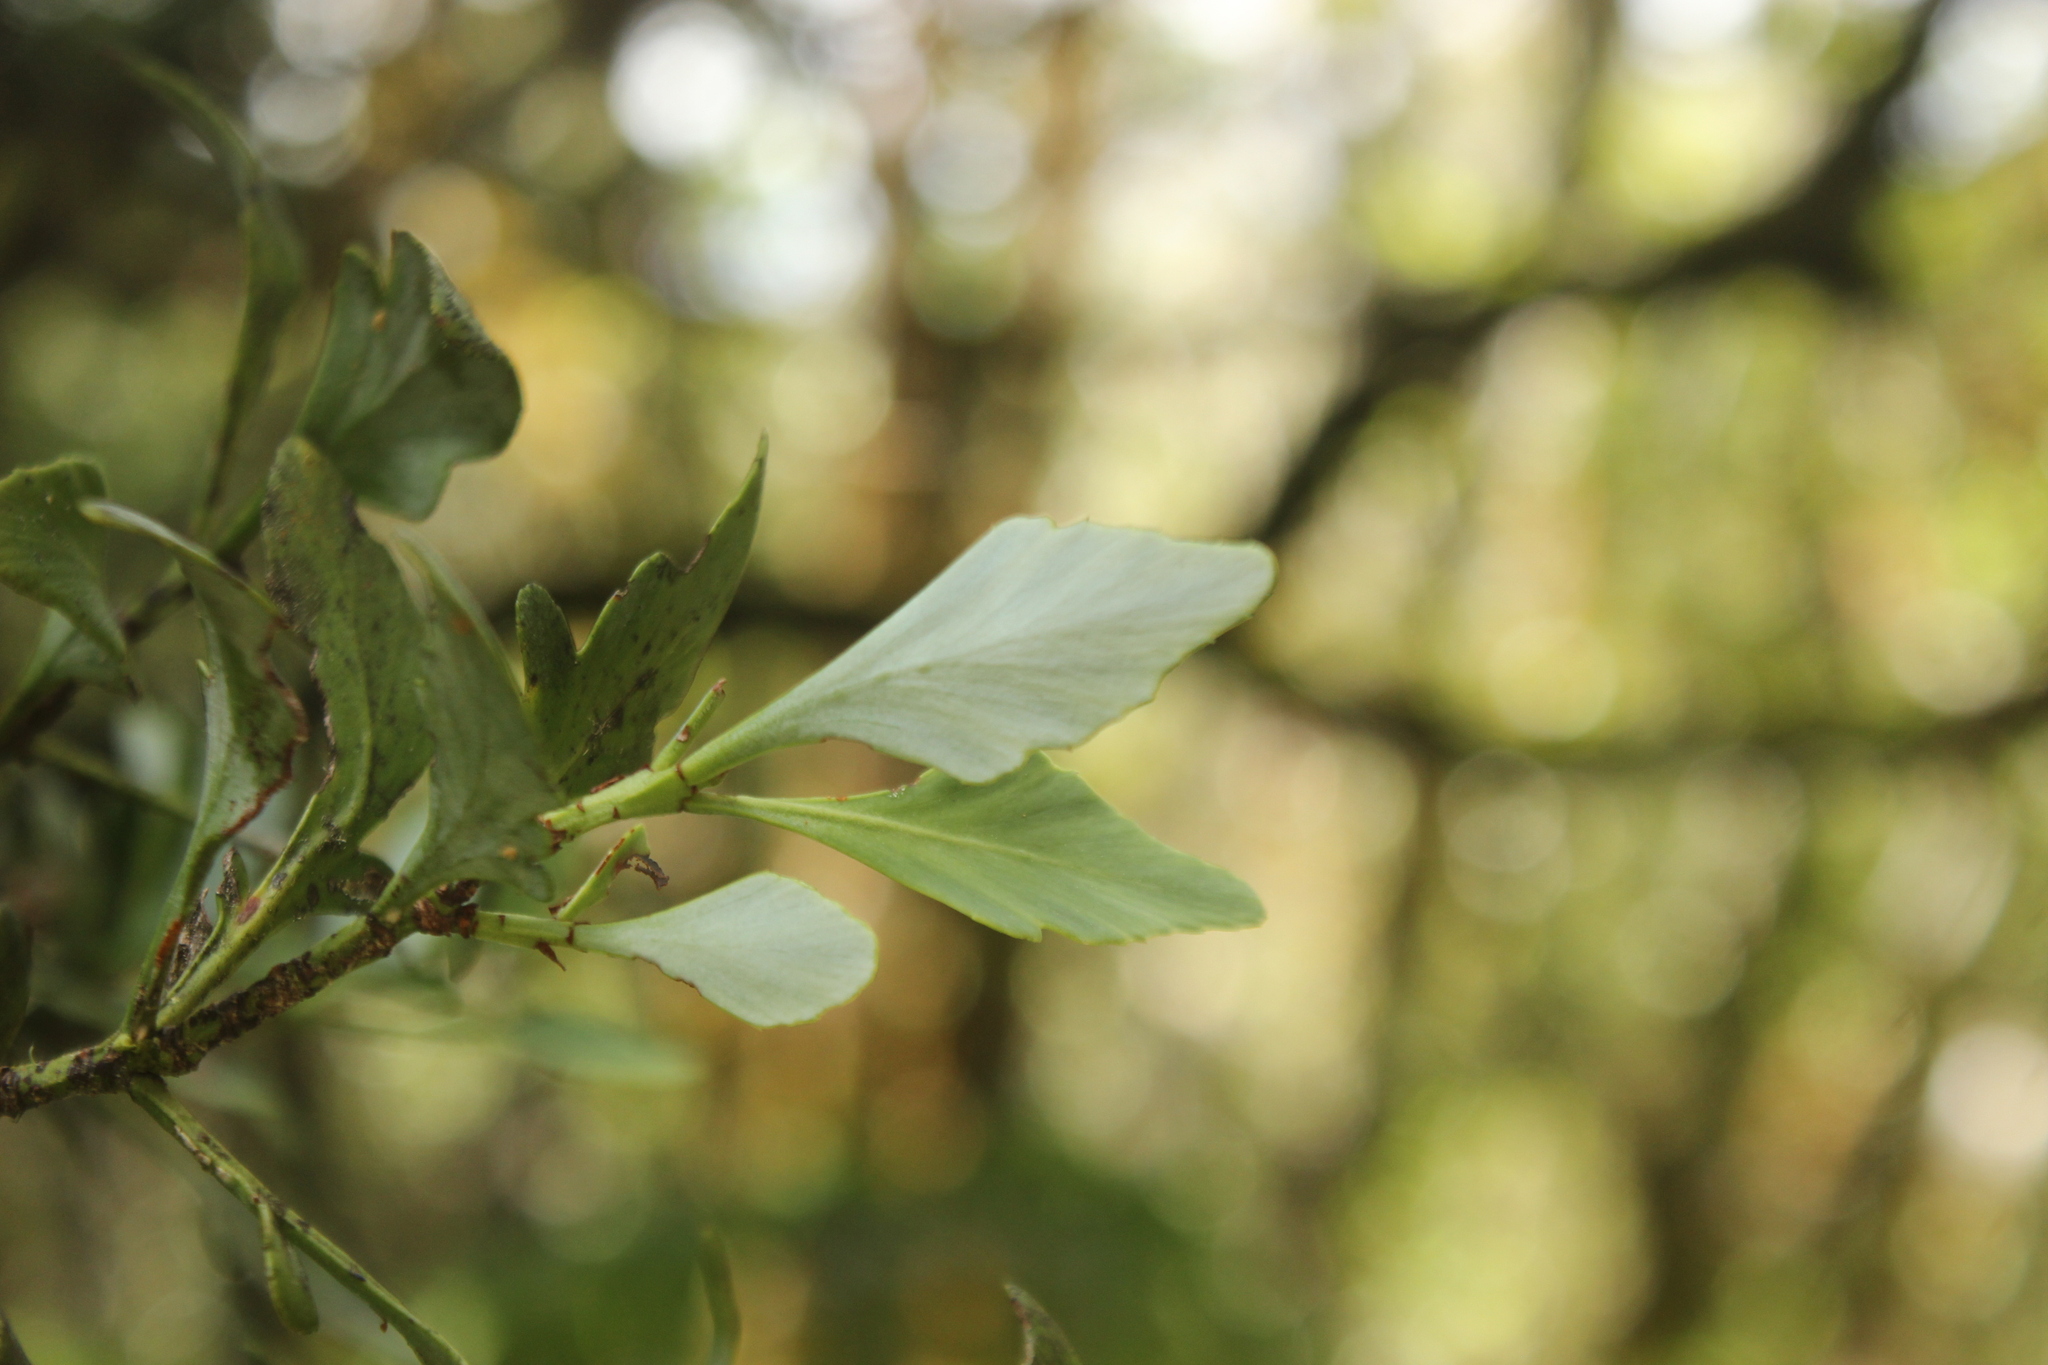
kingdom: Plantae
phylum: Tracheophyta
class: Pinopsida
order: Pinales
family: Phyllocladaceae
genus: Phyllocladus
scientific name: Phyllocladus trichomanoides
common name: Celery pine
